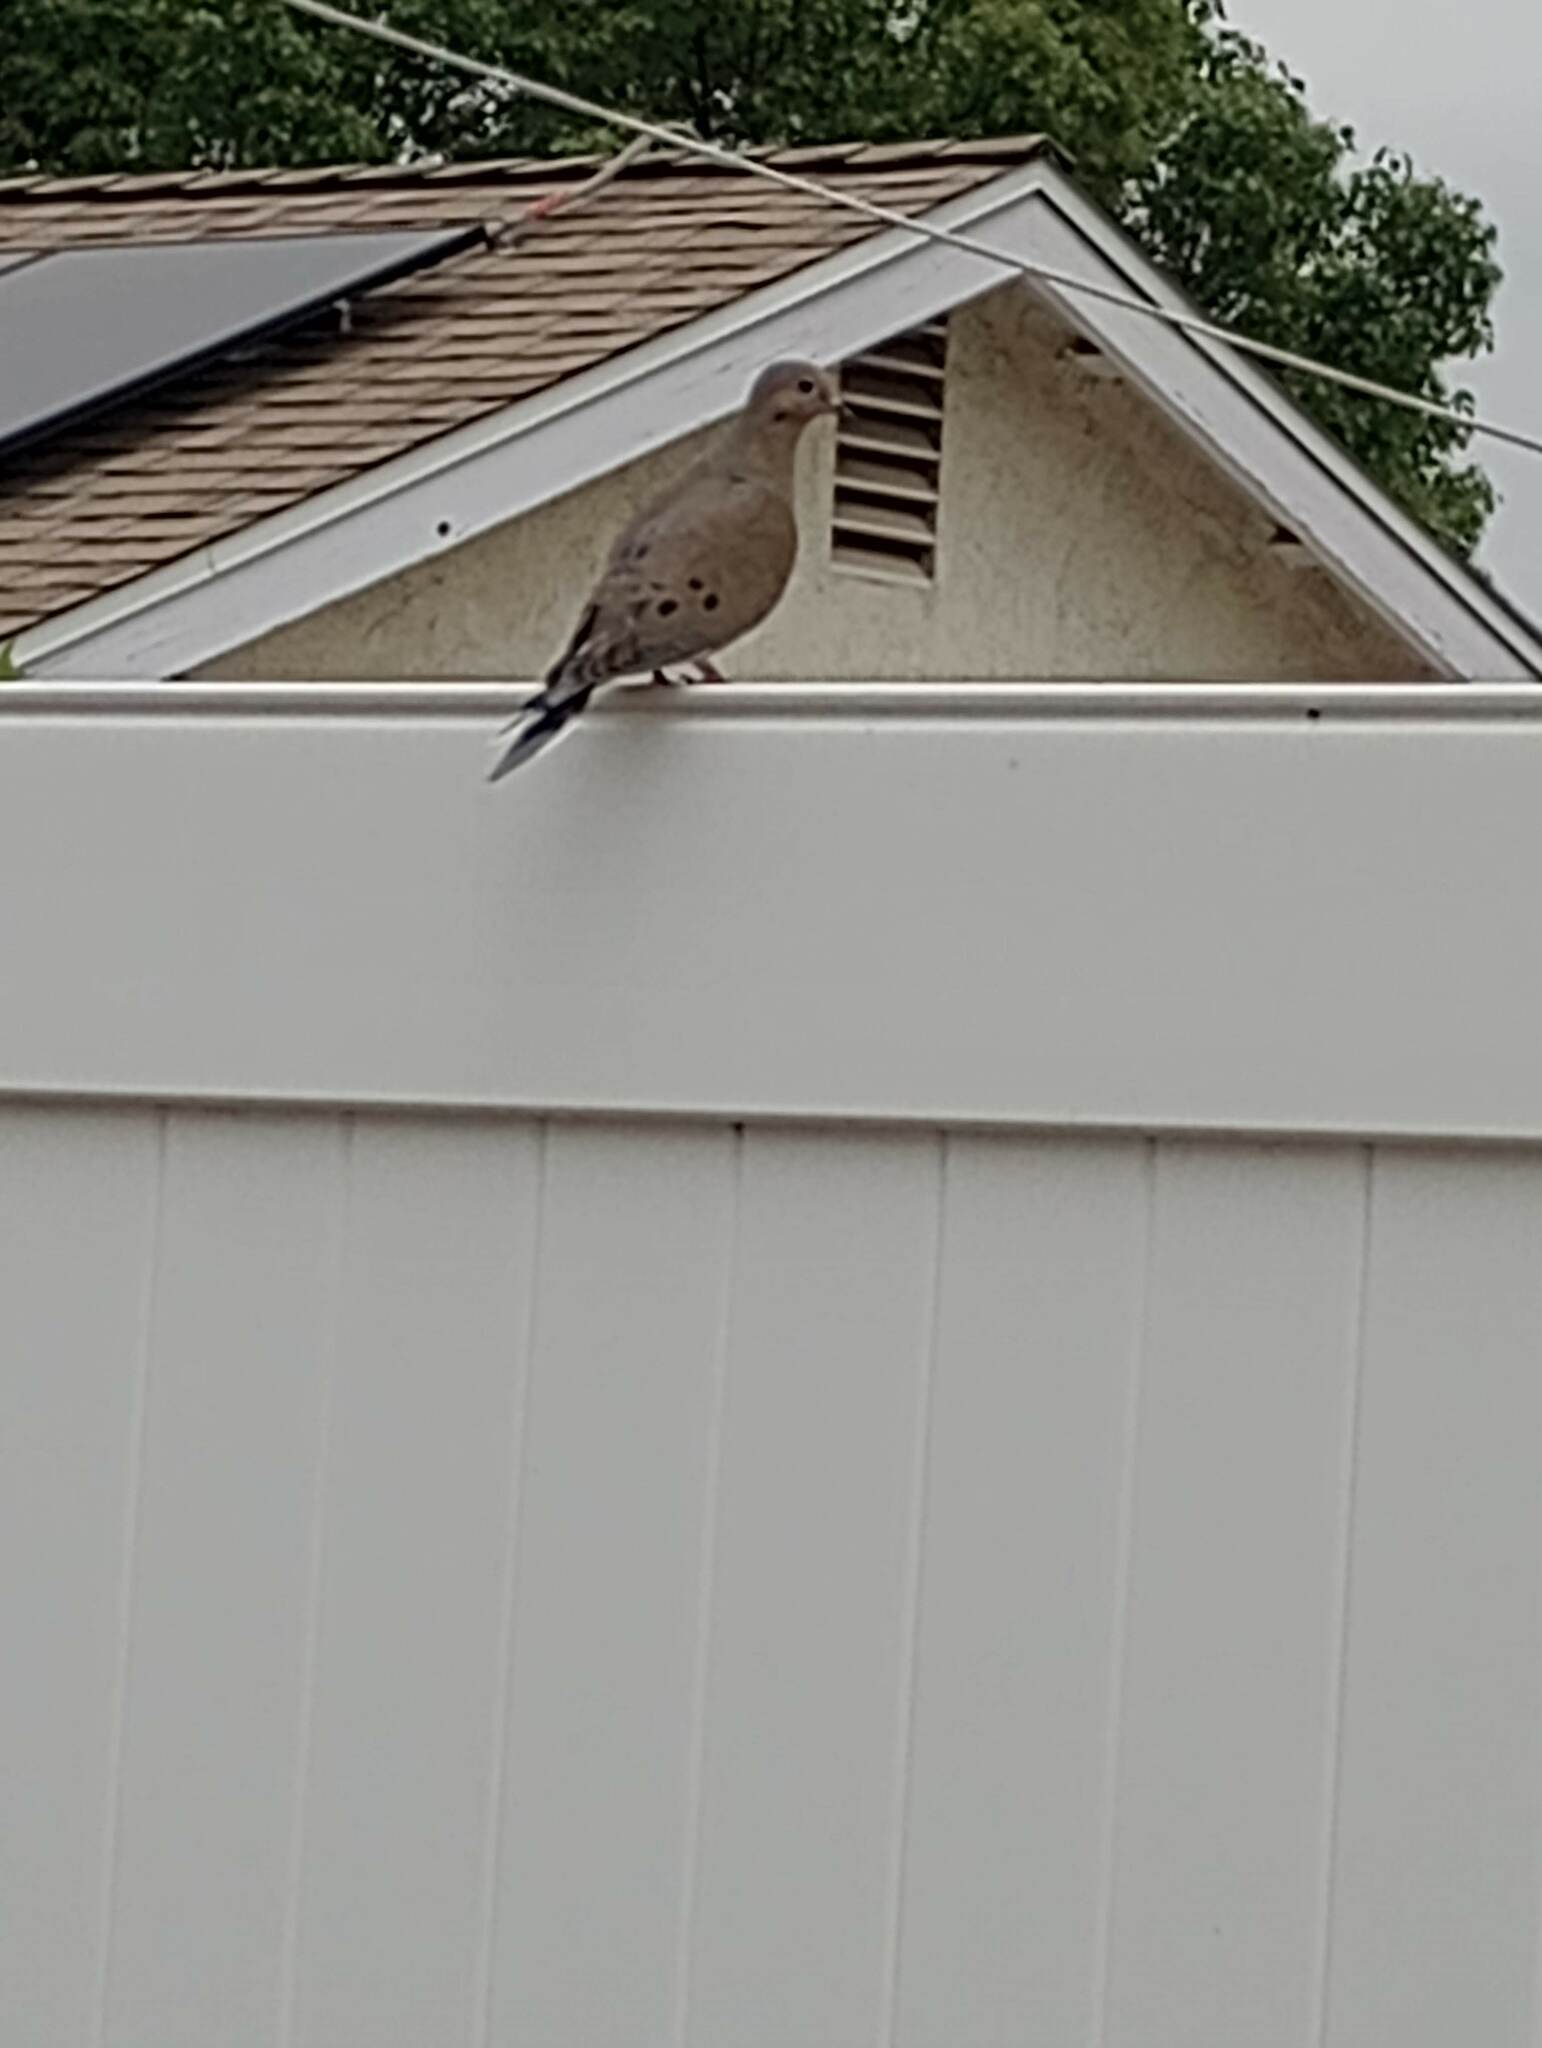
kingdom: Animalia
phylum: Chordata
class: Aves
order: Columbiformes
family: Columbidae
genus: Zenaida
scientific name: Zenaida macroura
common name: Mourning dove
